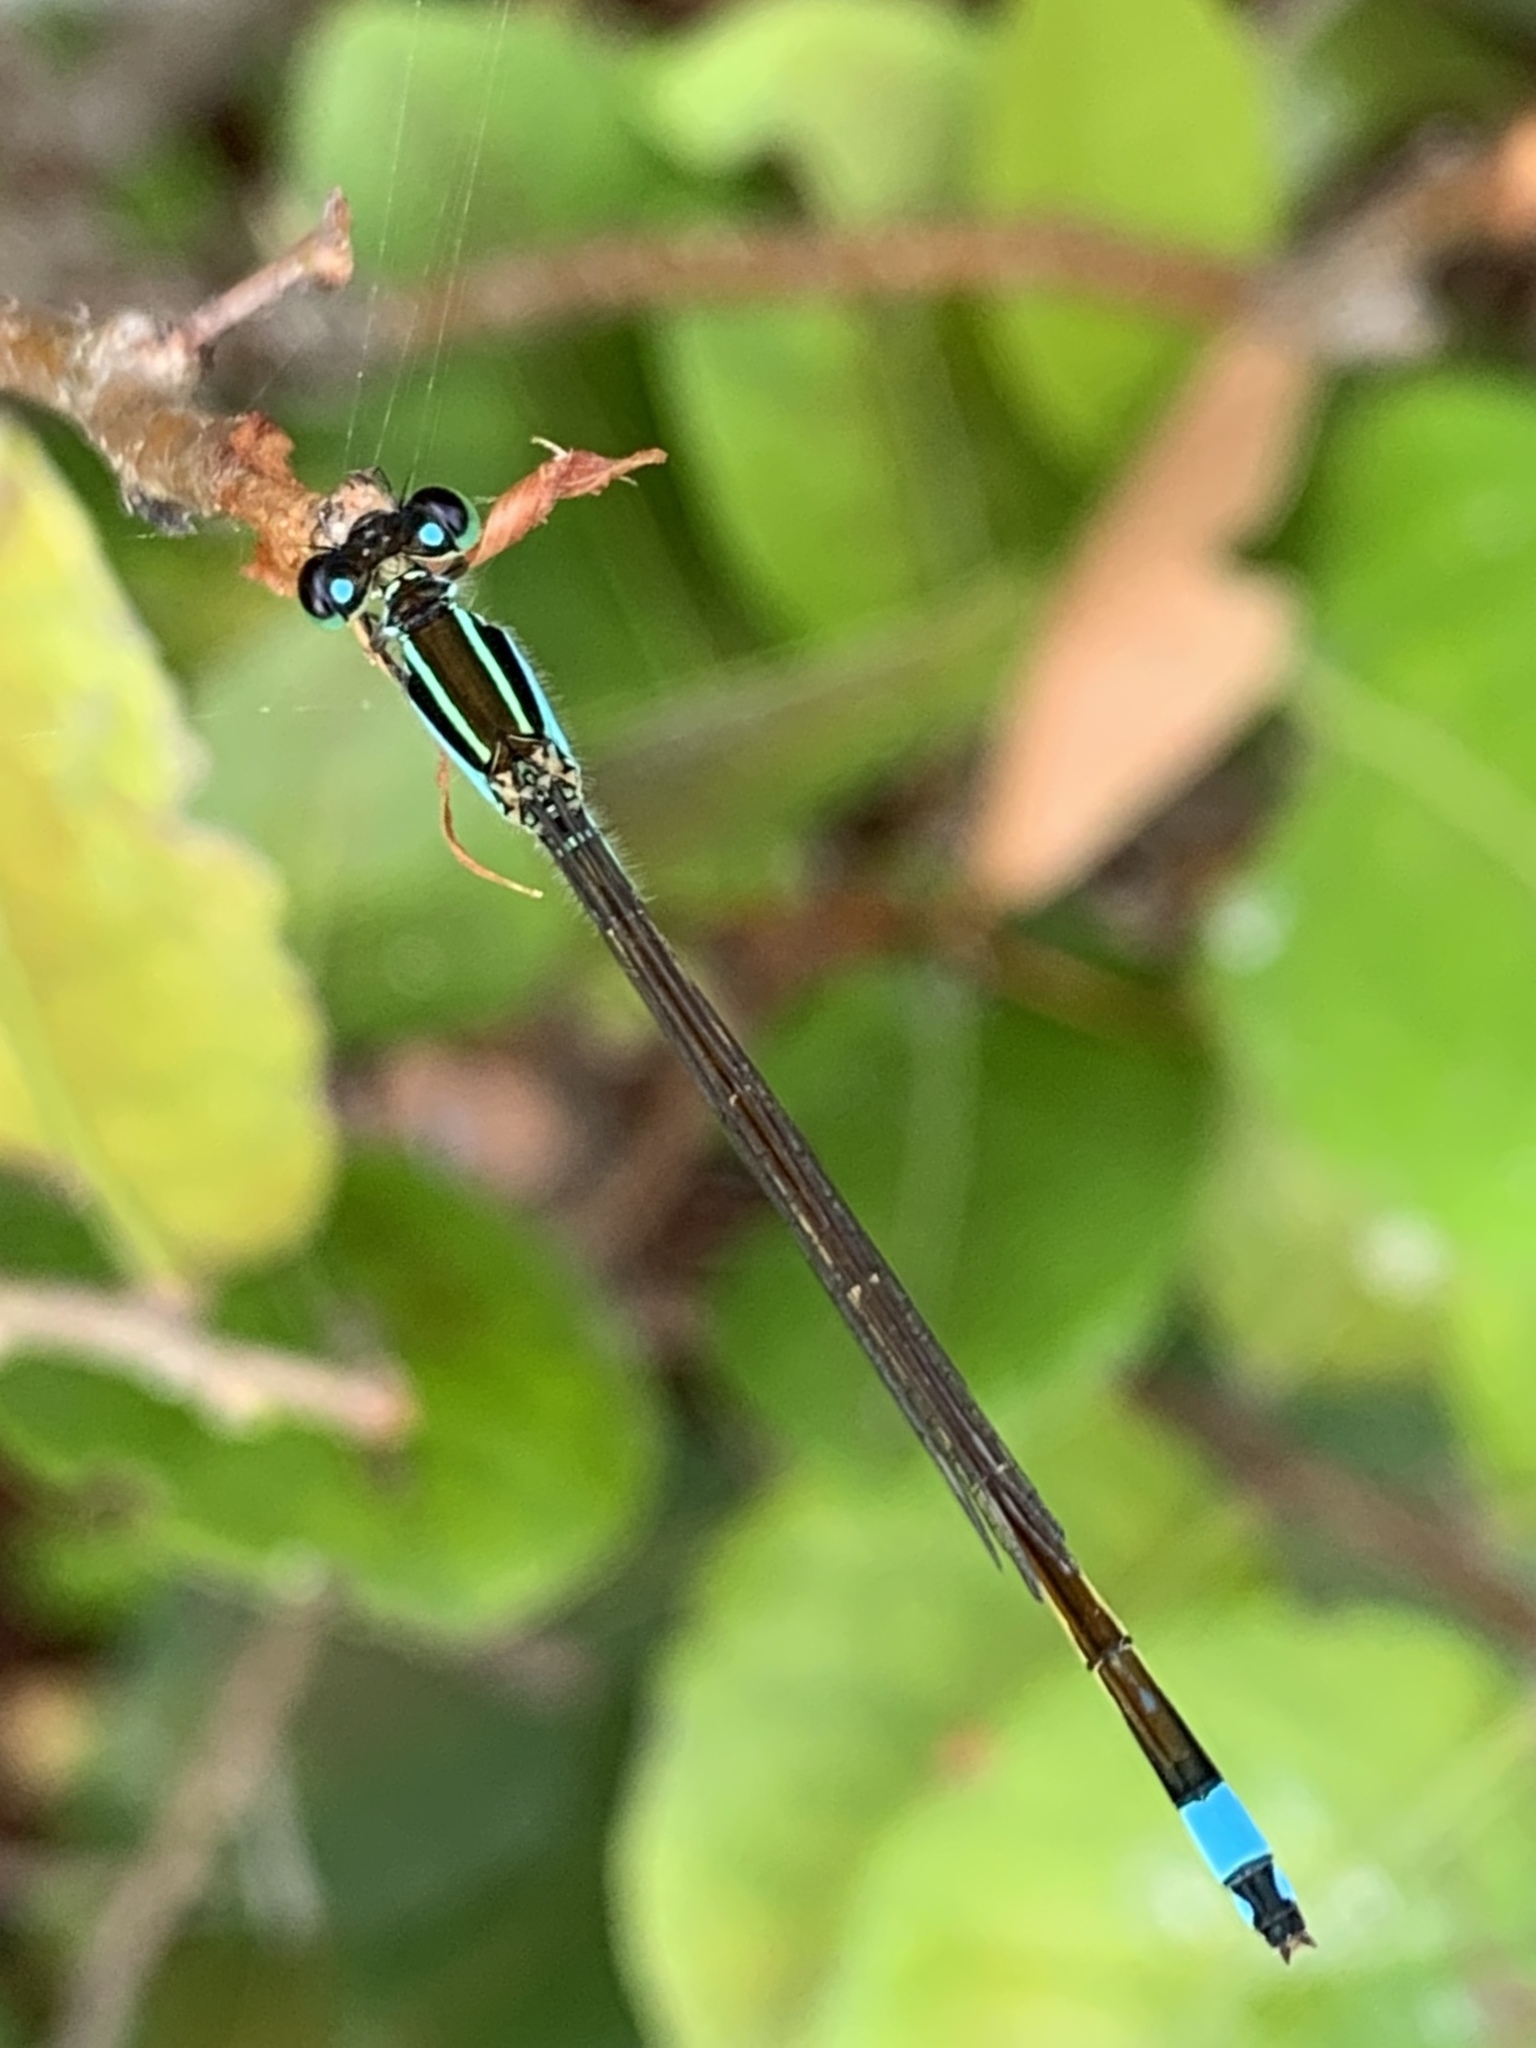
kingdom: Animalia
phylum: Arthropoda
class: Insecta
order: Odonata
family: Coenagrionidae
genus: Ischnura
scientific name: Ischnura ramburii
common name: Rambur's forktail
